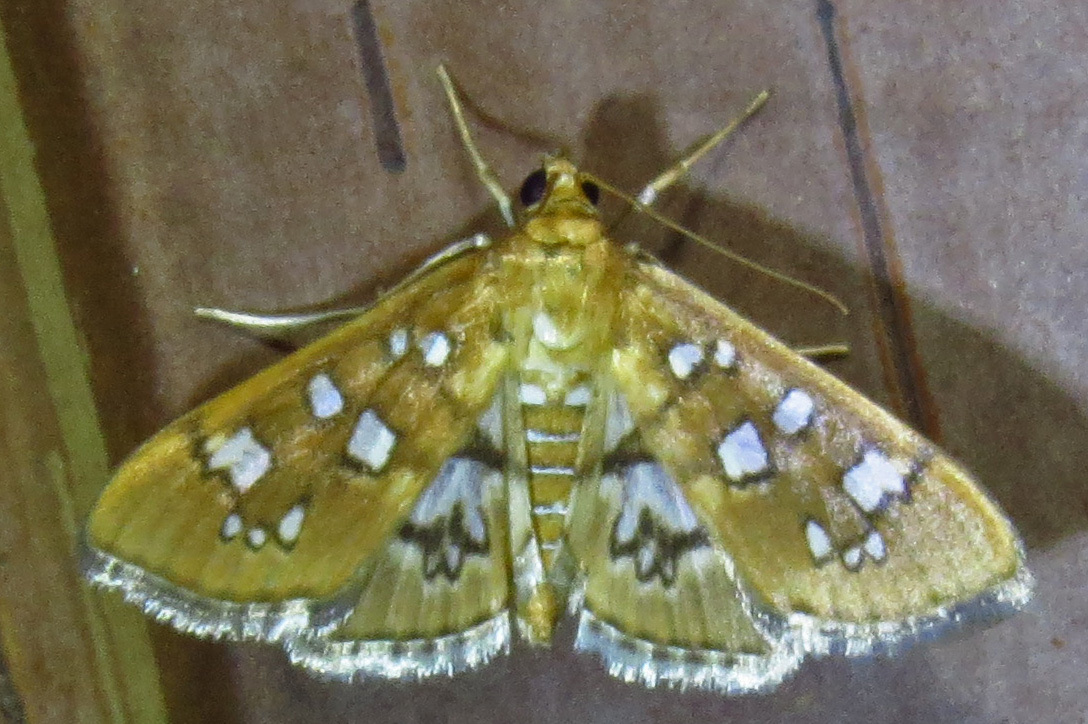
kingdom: Animalia
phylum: Arthropoda
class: Insecta
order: Lepidoptera
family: Crambidae
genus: Samea
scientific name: Samea baccatalis
